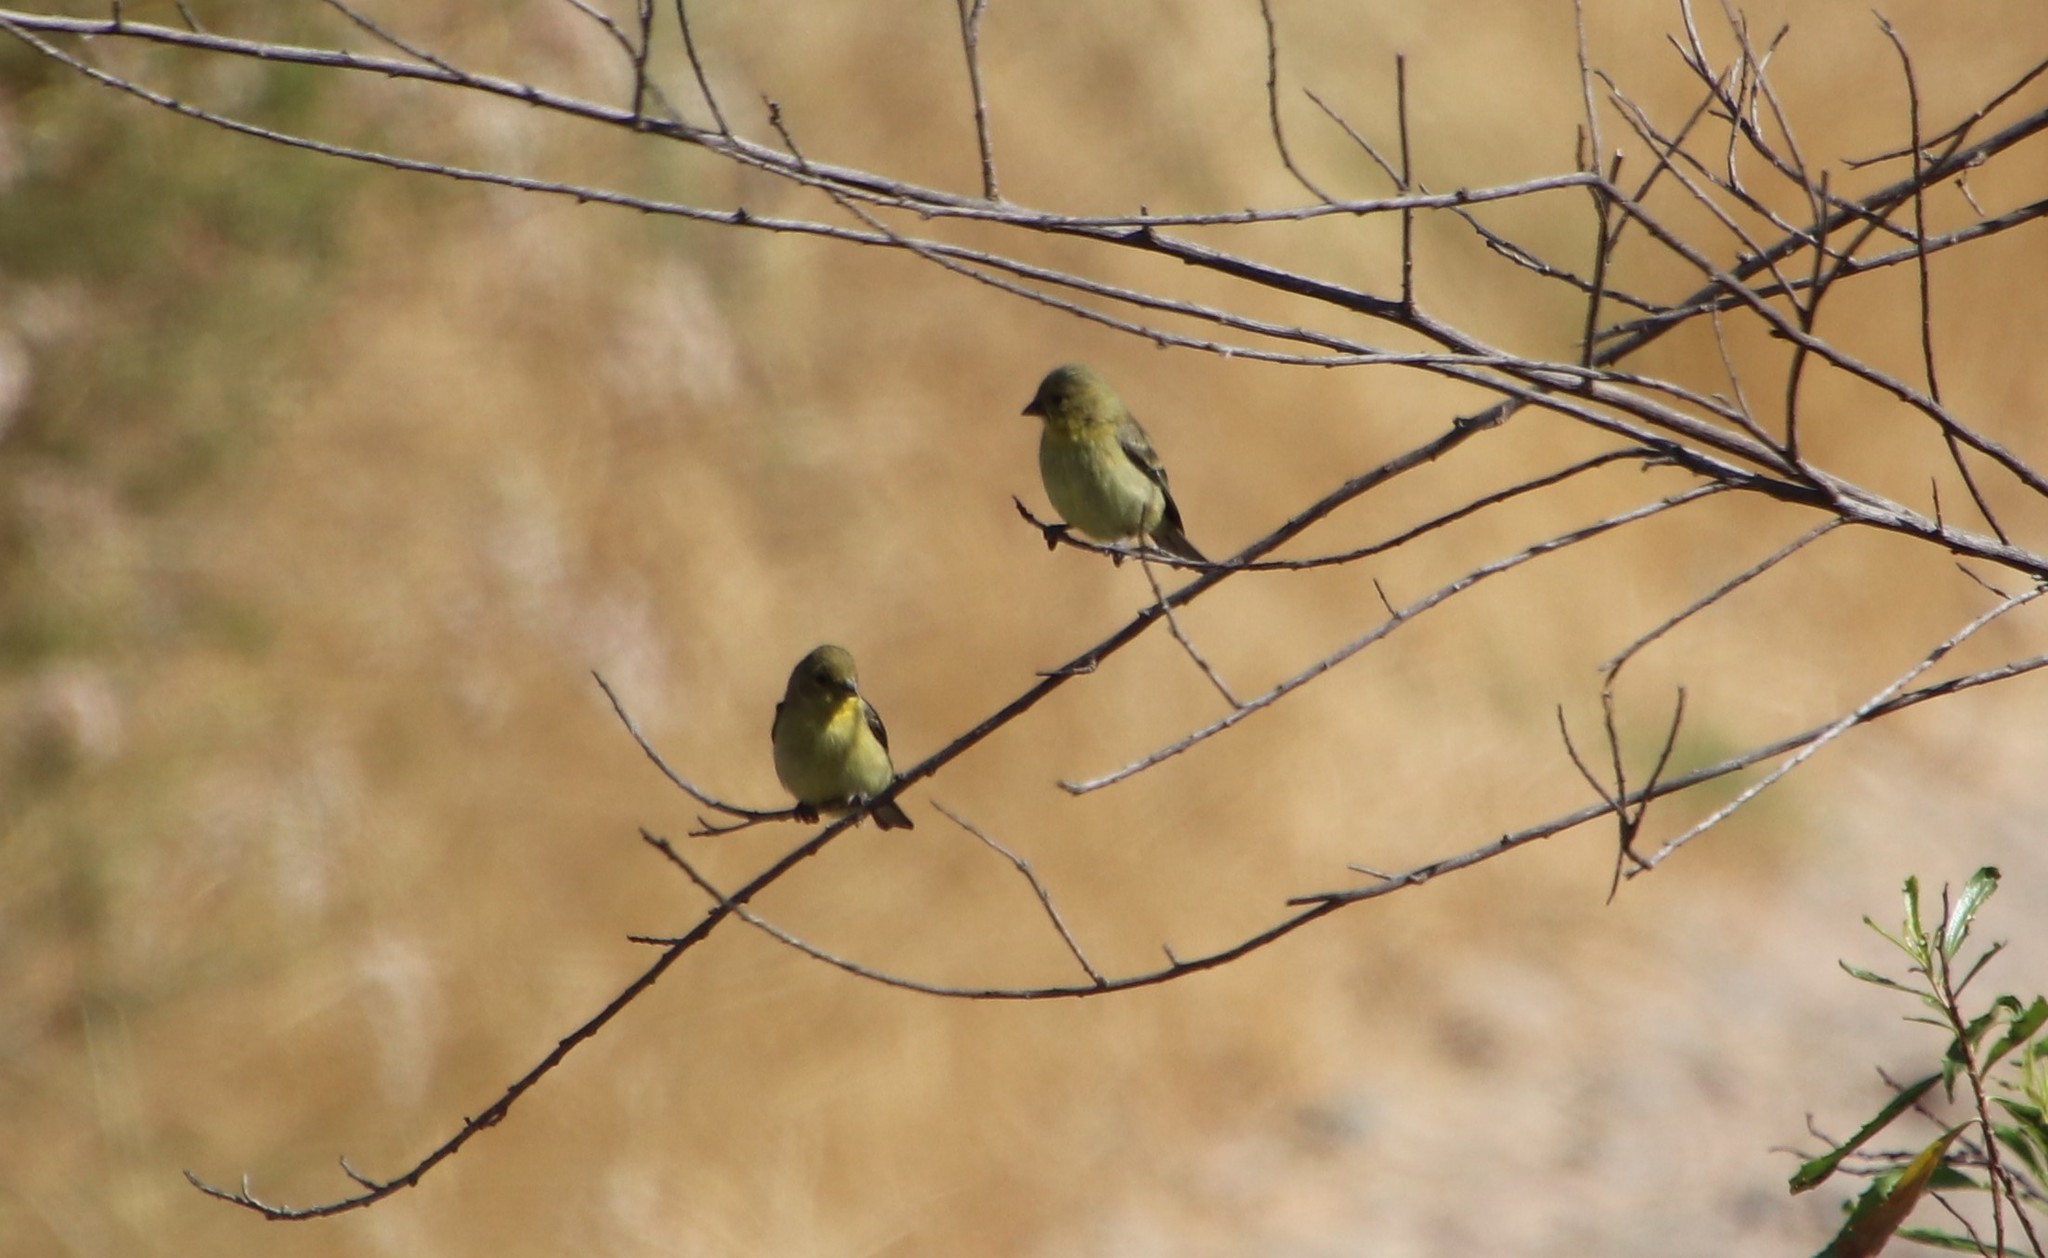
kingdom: Animalia
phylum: Chordata
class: Aves
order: Passeriformes
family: Fringillidae
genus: Spinus
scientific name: Spinus psaltria
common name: Lesser goldfinch
